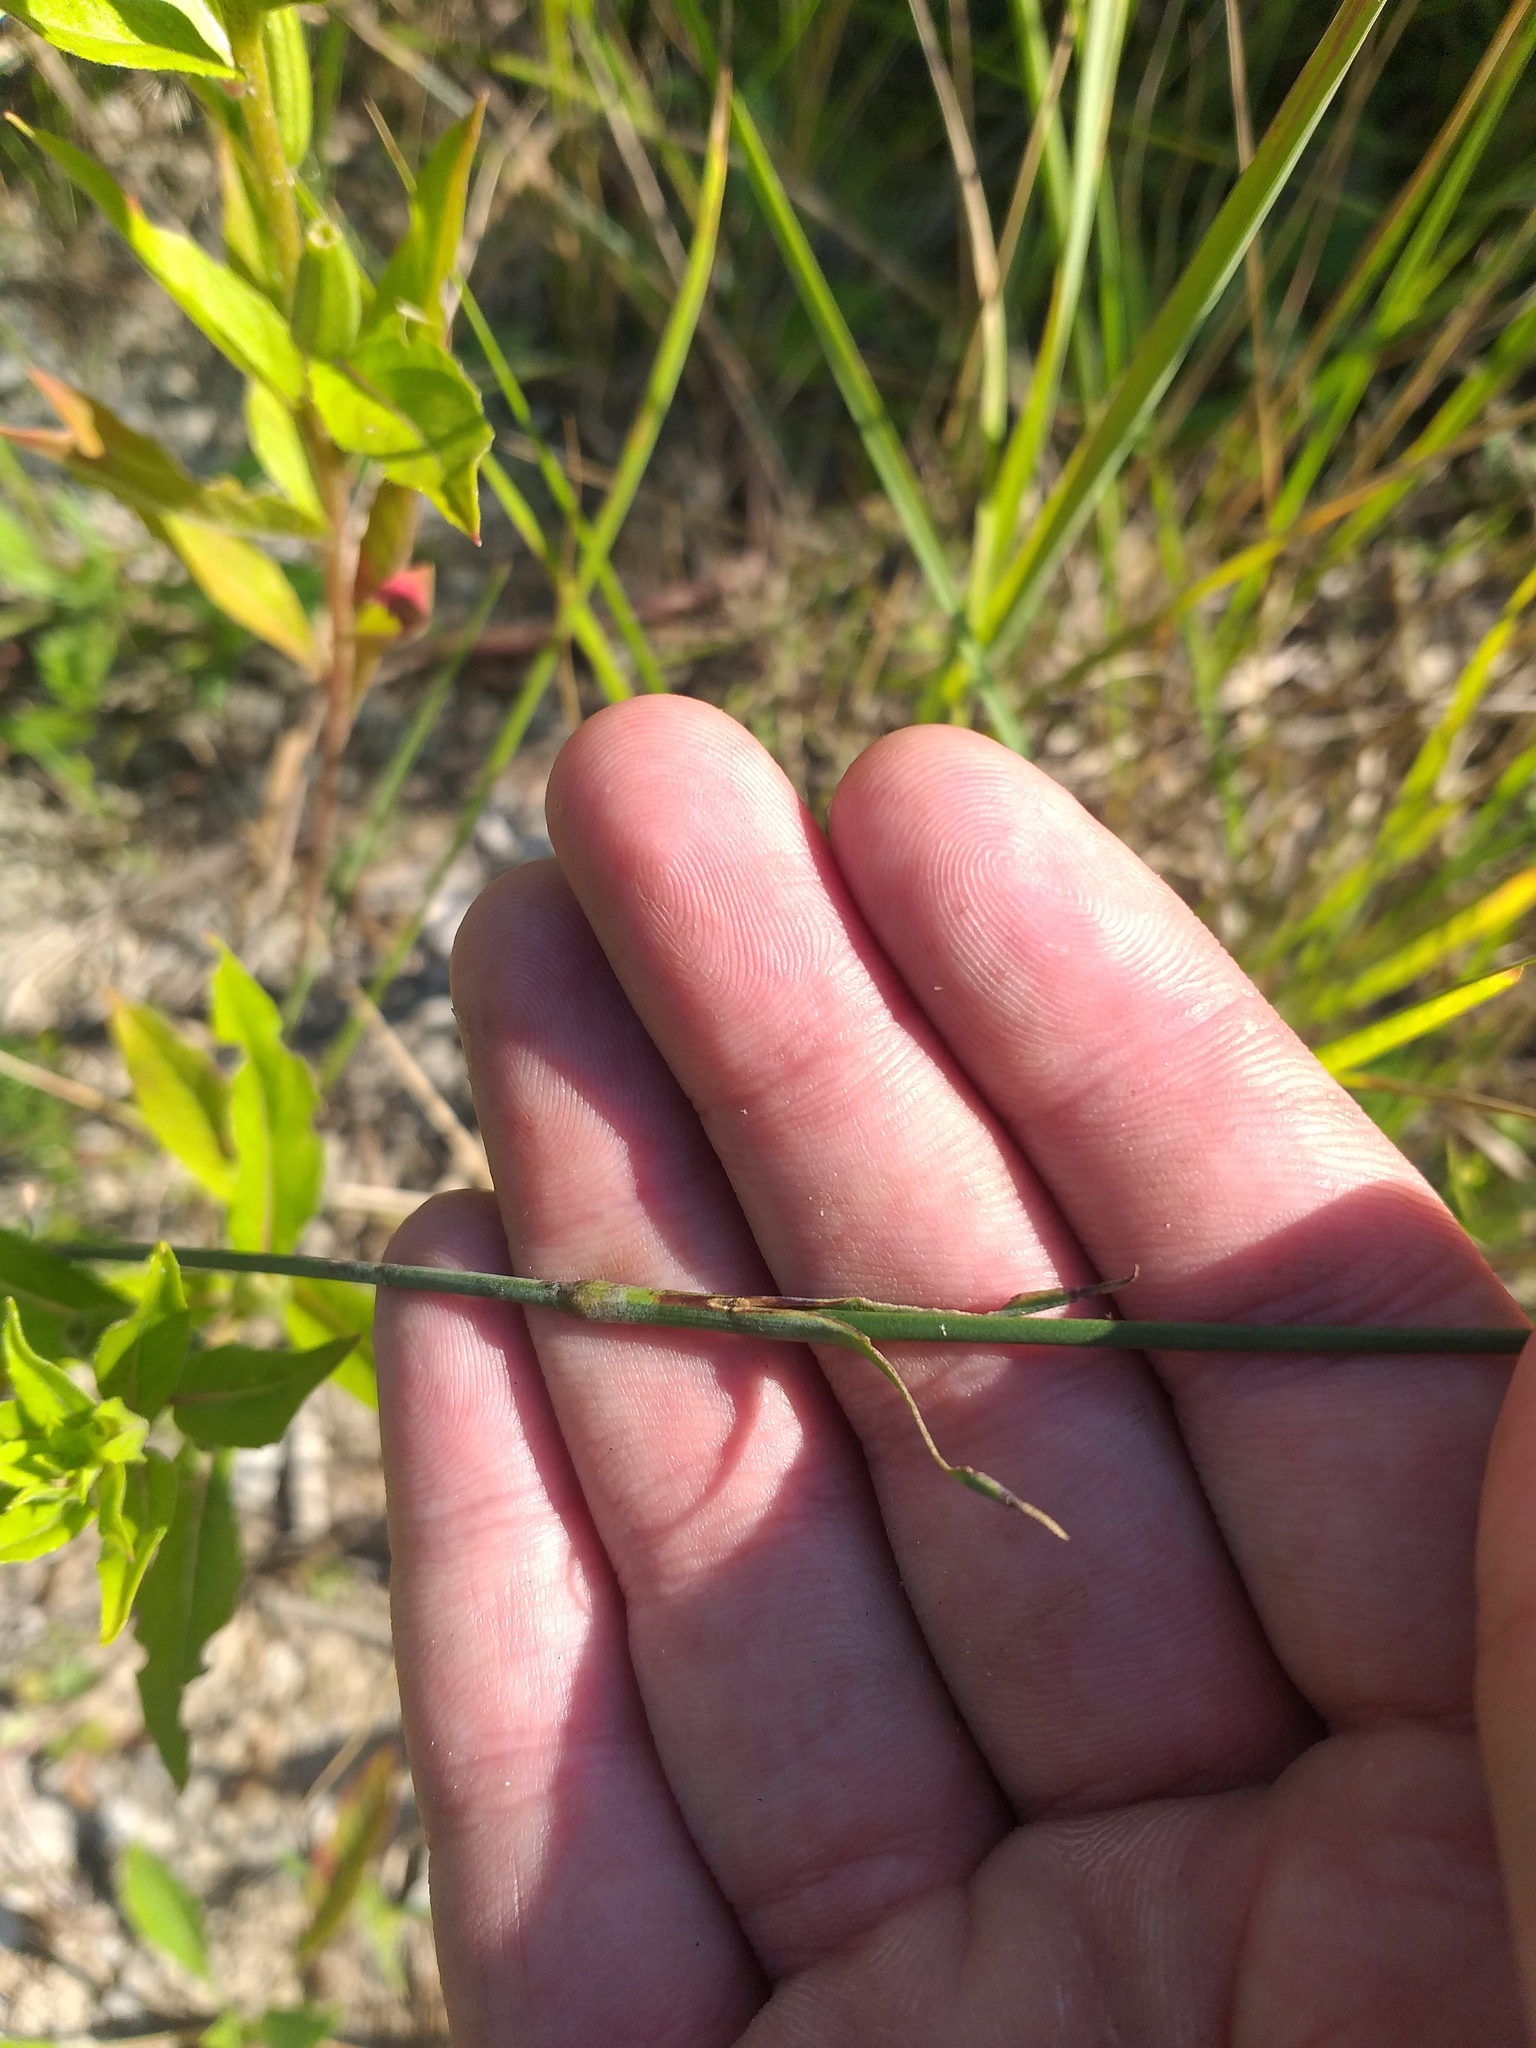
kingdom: Plantae
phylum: Tracheophyta
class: Magnoliopsida
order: Caryophyllales
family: Caryophyllaceae
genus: Dianthus
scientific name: Dianthus borbasii
